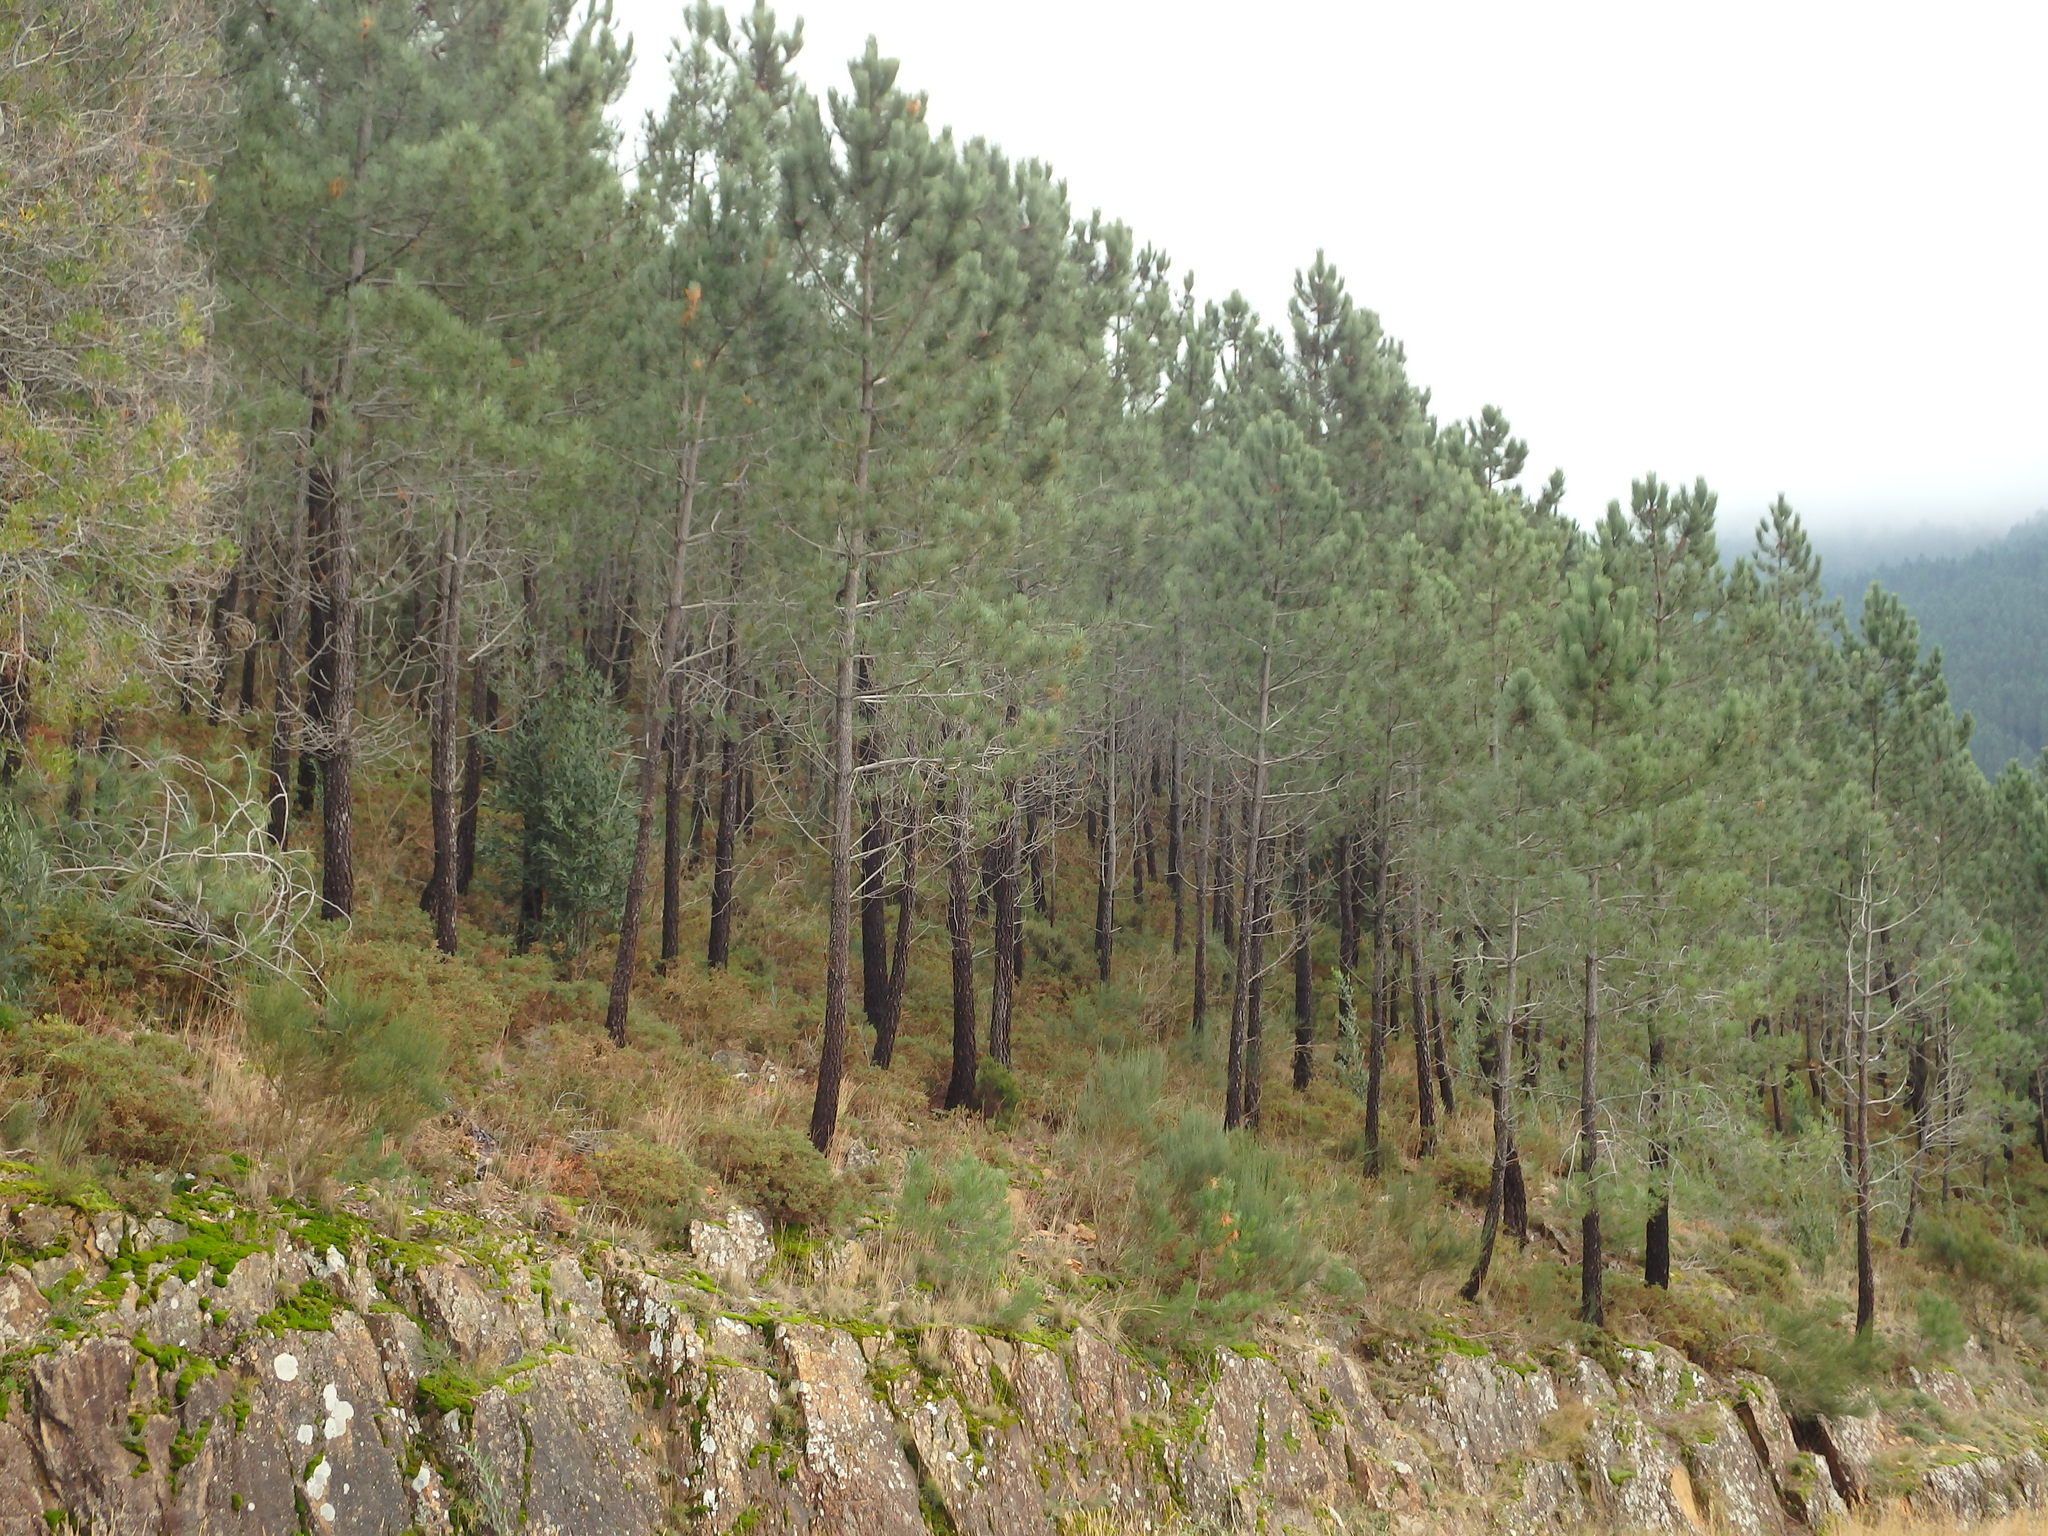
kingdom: Plantae
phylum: Tracheophyta
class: Pinopsida
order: Pinales
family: Pinaceae
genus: Pinus
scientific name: Pinus pinaster
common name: Maritime pine
